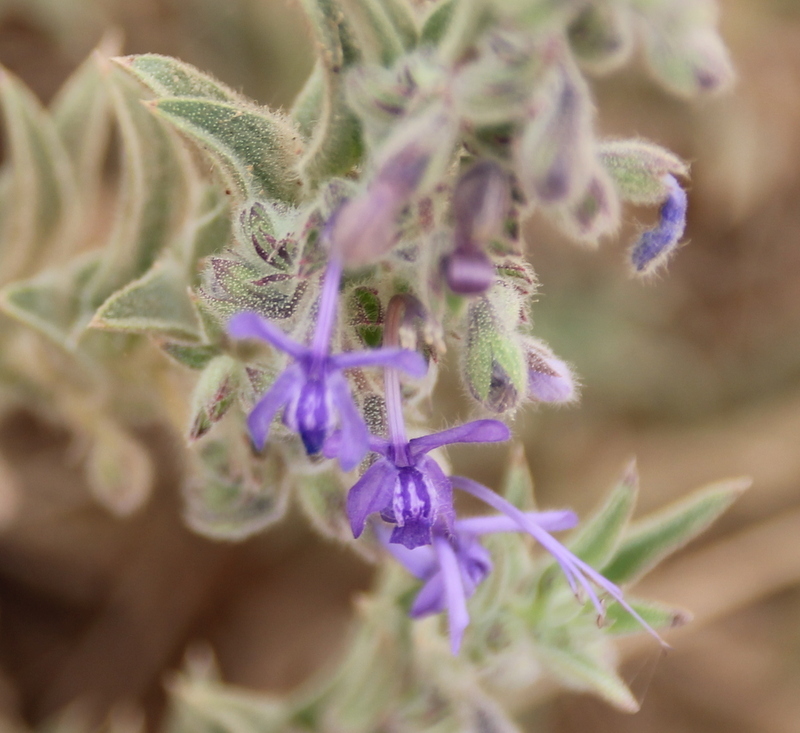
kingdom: Plantae
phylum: Tracheophyta
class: Magnoliopsida
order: Lamiales
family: Lamiaceae
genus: Trichostema
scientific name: Trichostema lanceolatum
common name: Vinegar-weed
